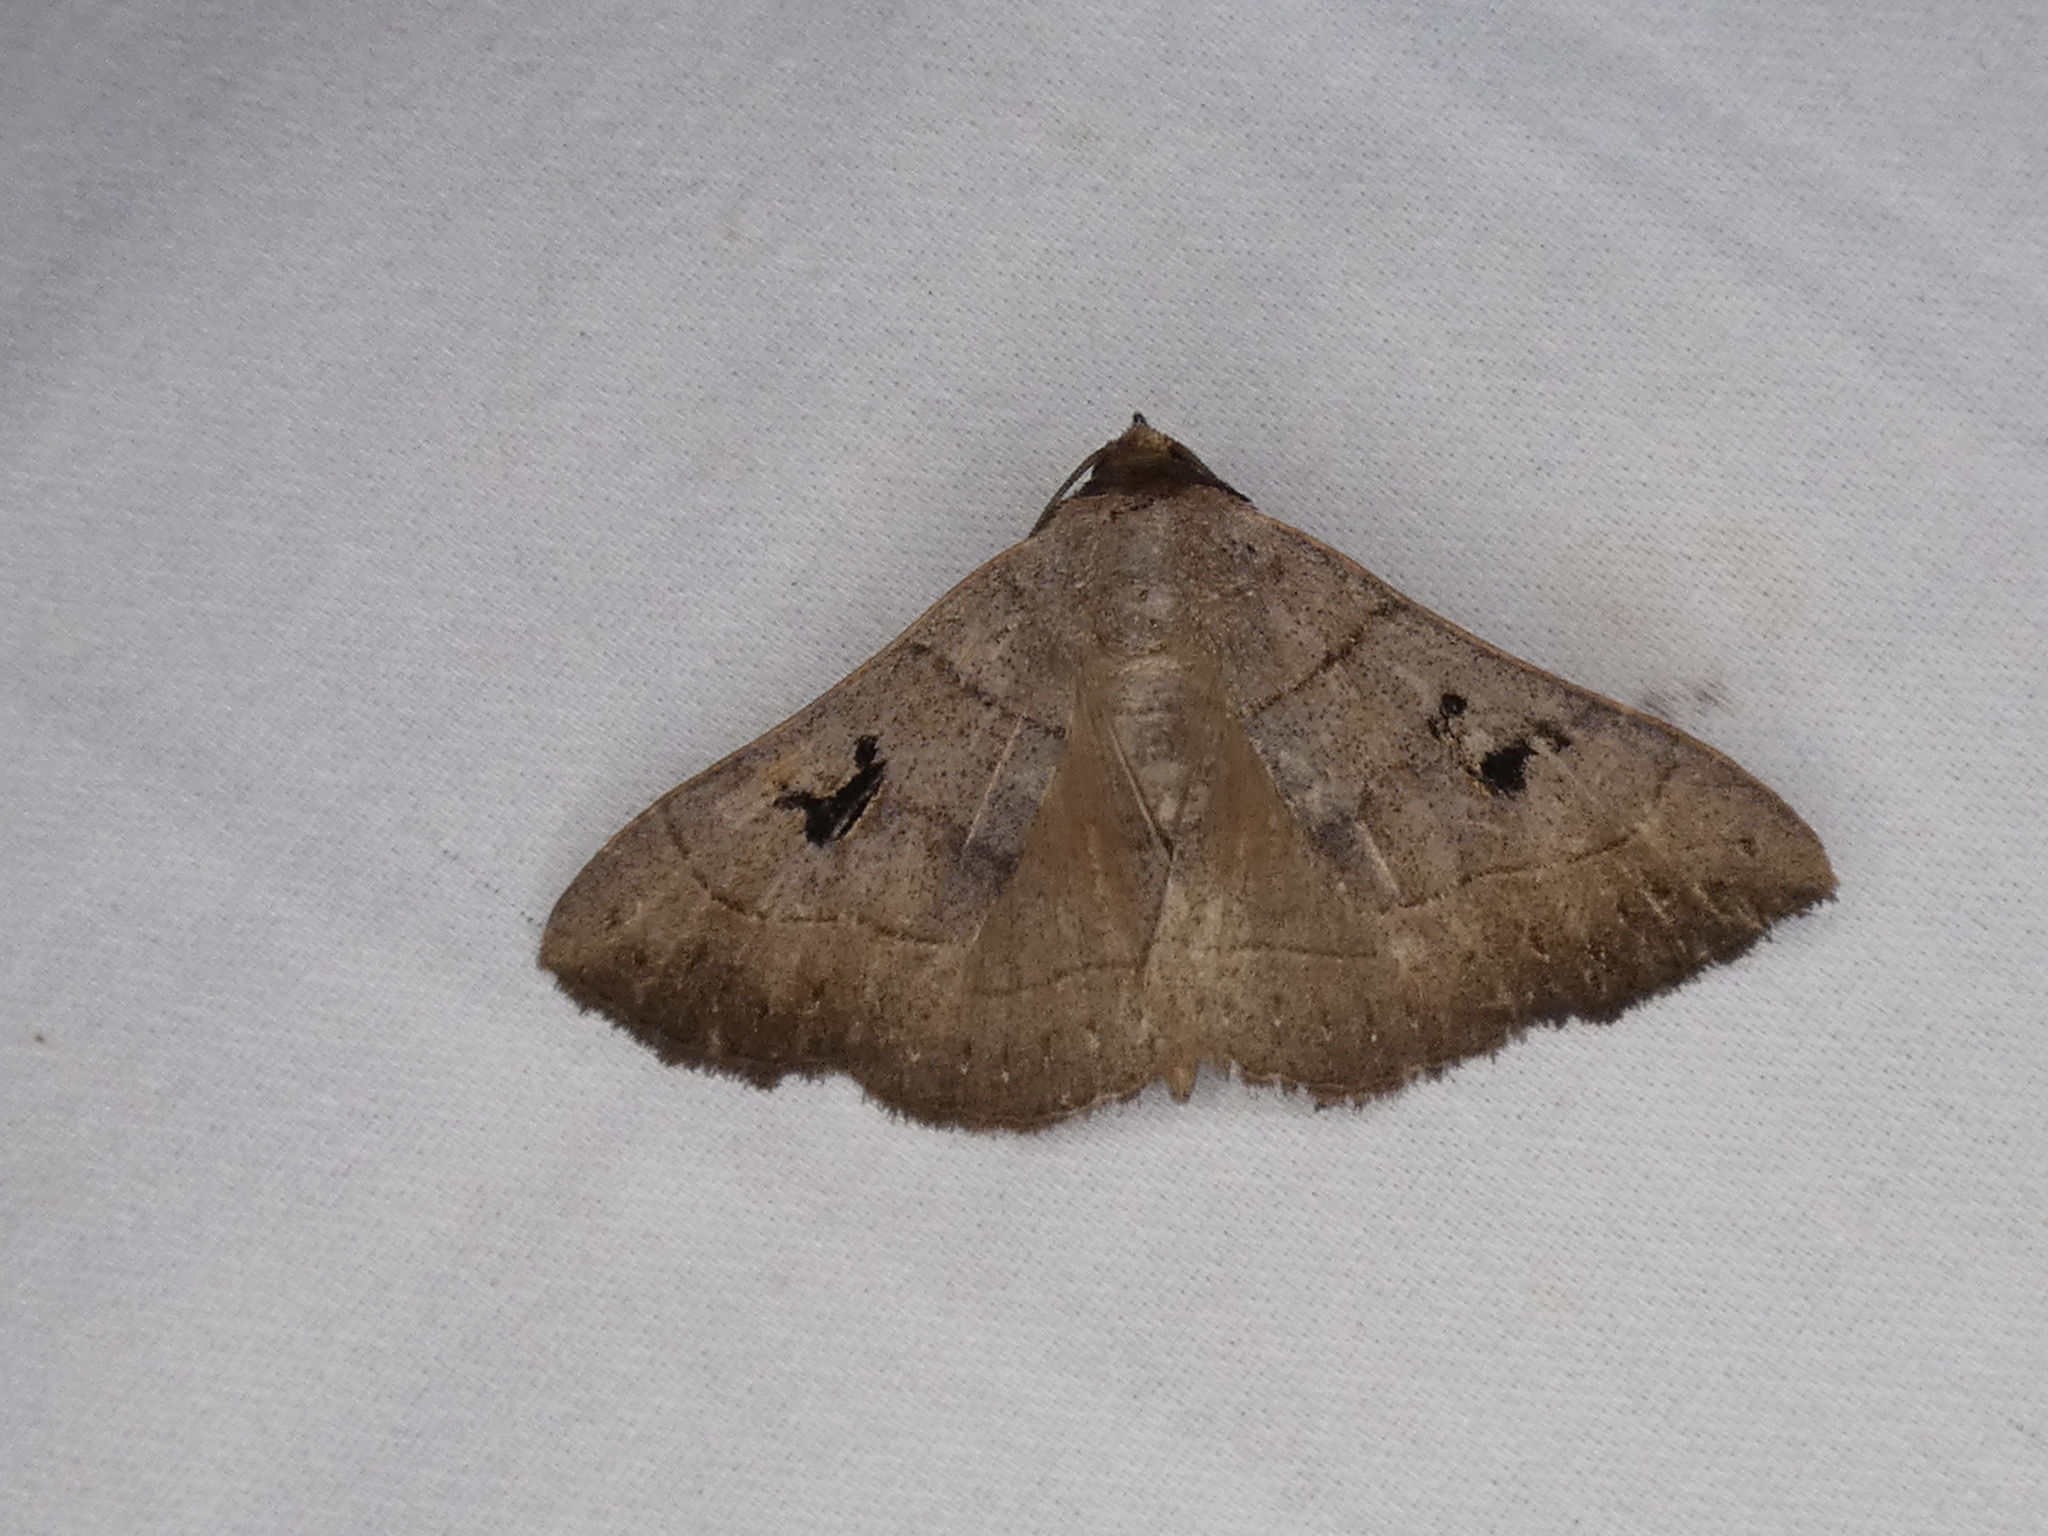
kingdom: Animalia
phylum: Arthropoda
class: Insecta
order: Lepidoptera
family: Erebidae
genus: Panopoda
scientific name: Panopoda carneicosta
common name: Brown panopoda moth
